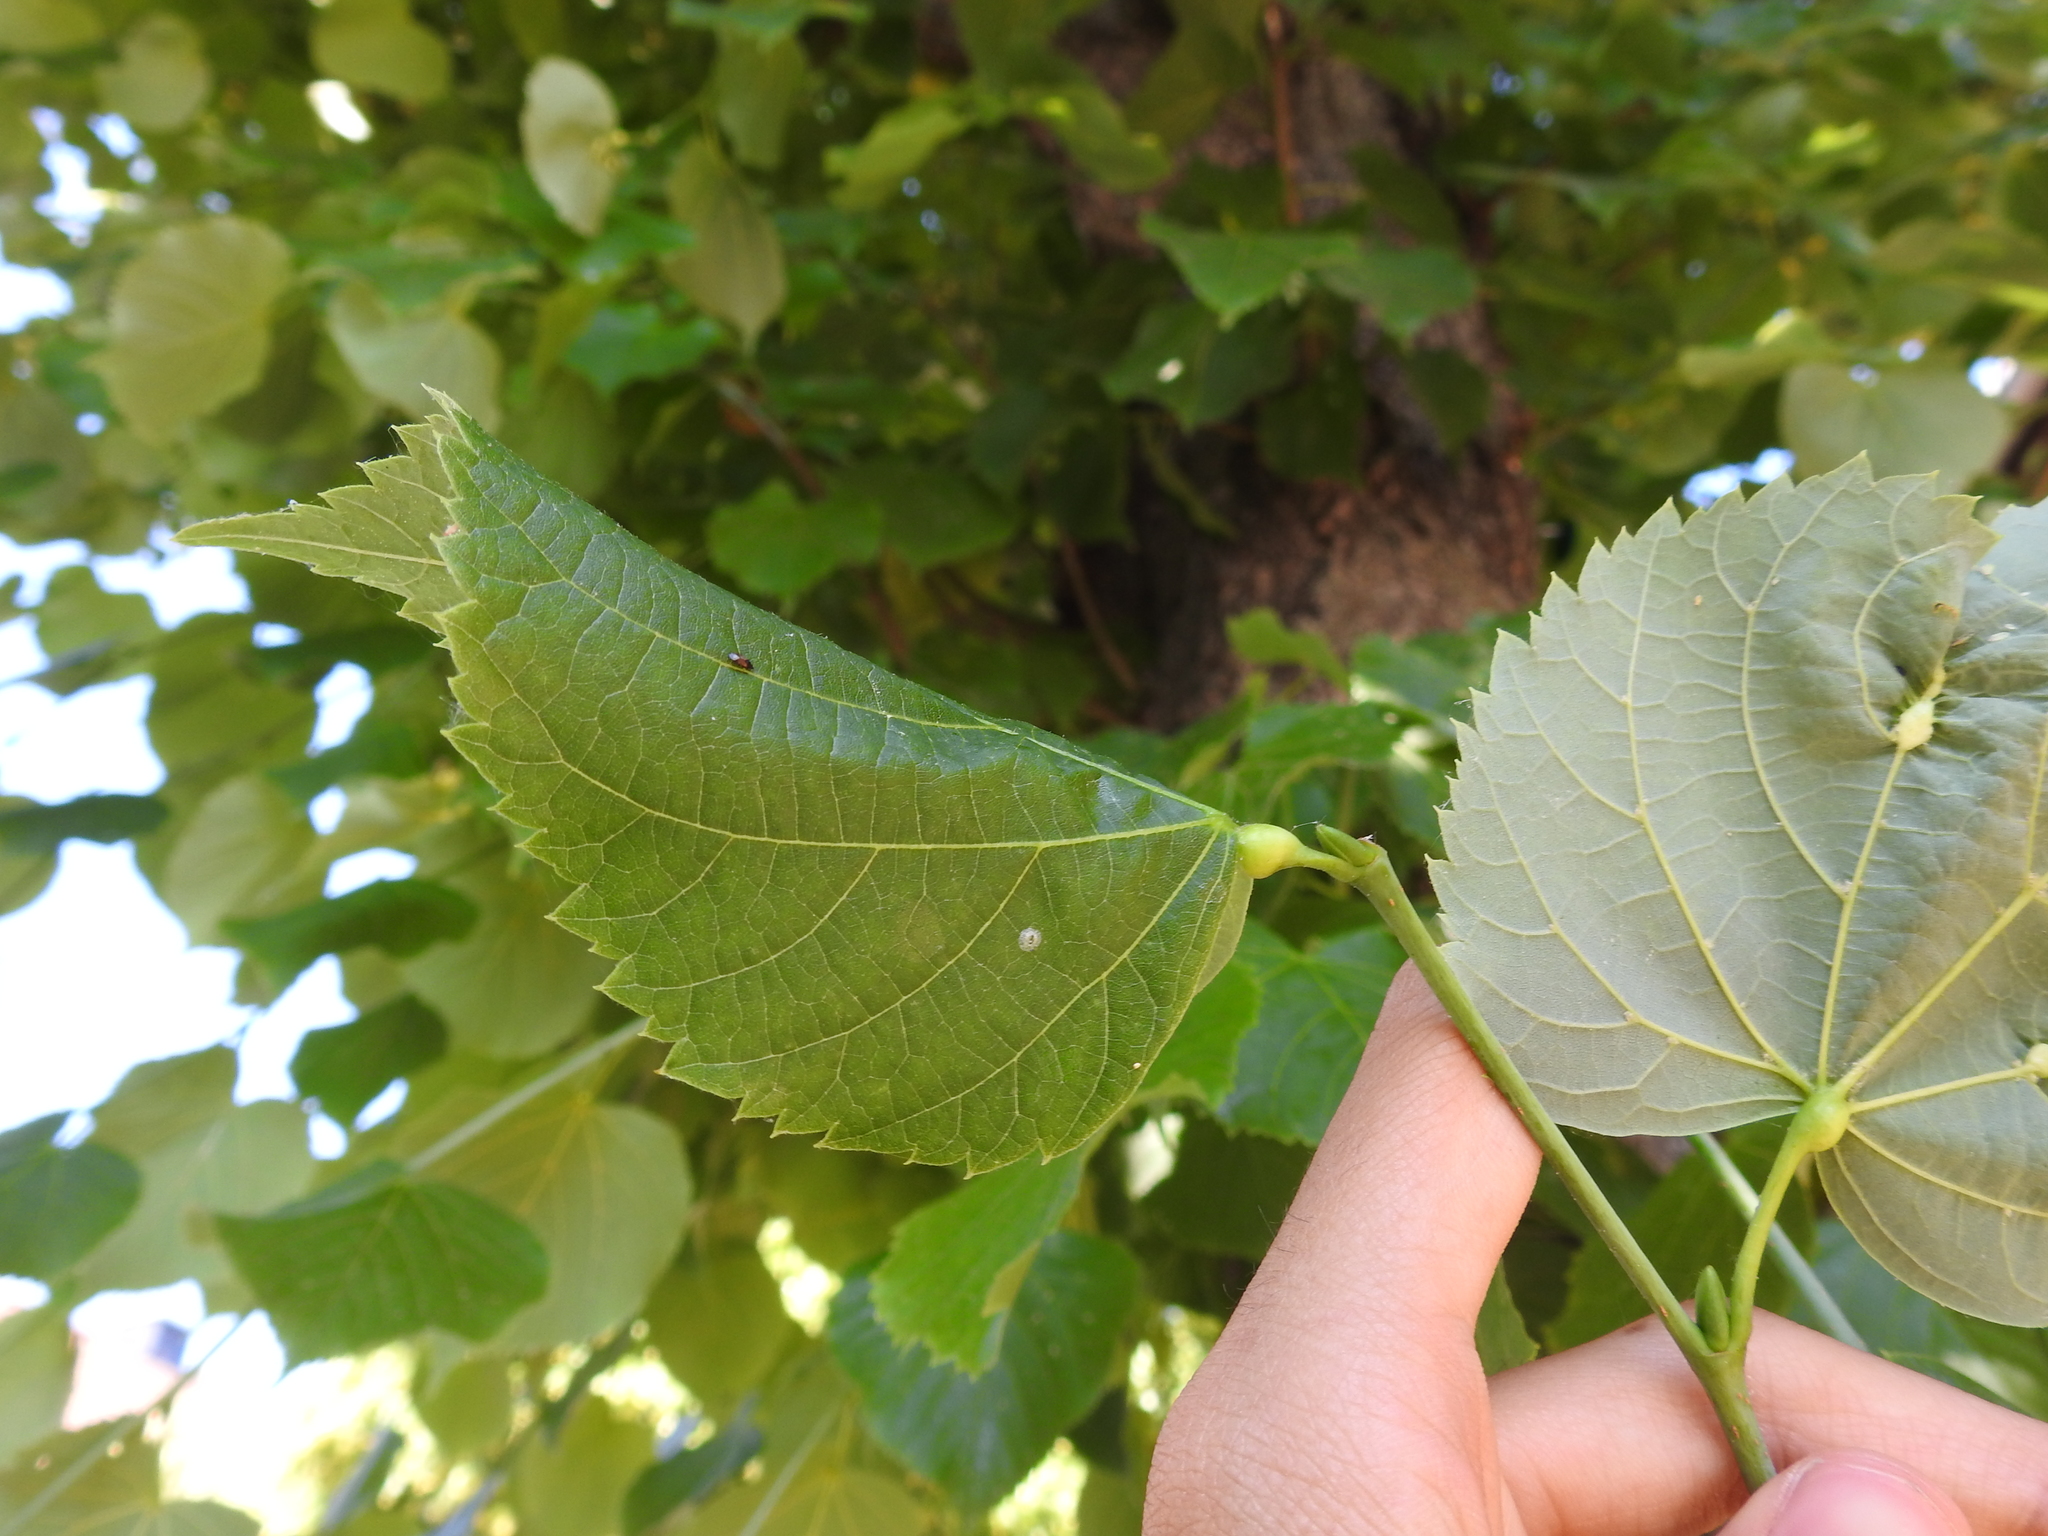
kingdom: Animalia
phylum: Arthropoda
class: Insecta
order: Diptera
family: Cecidomyiidae
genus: Contarinia
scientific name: Contarinia tiliarum
